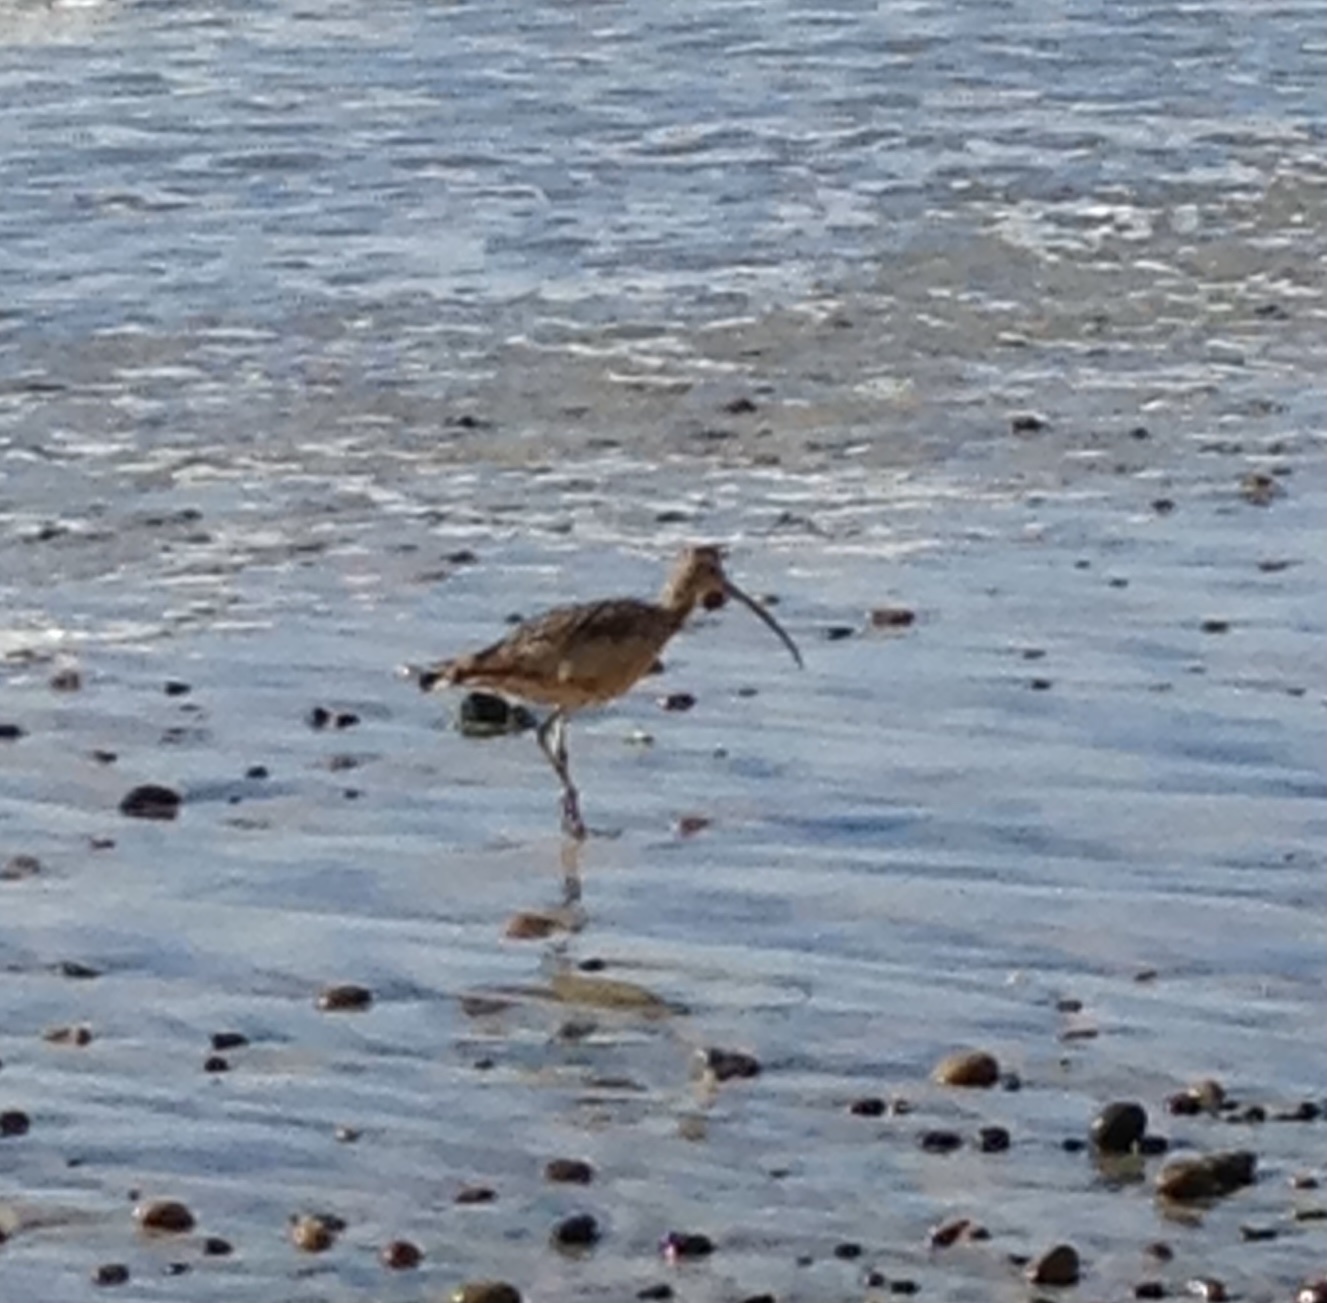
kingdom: Animalia
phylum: Chordata
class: Aves
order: Charadriiformes
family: Scolopacidae
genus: Numenius
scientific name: Numenius phaeopus
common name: Whimbrel
